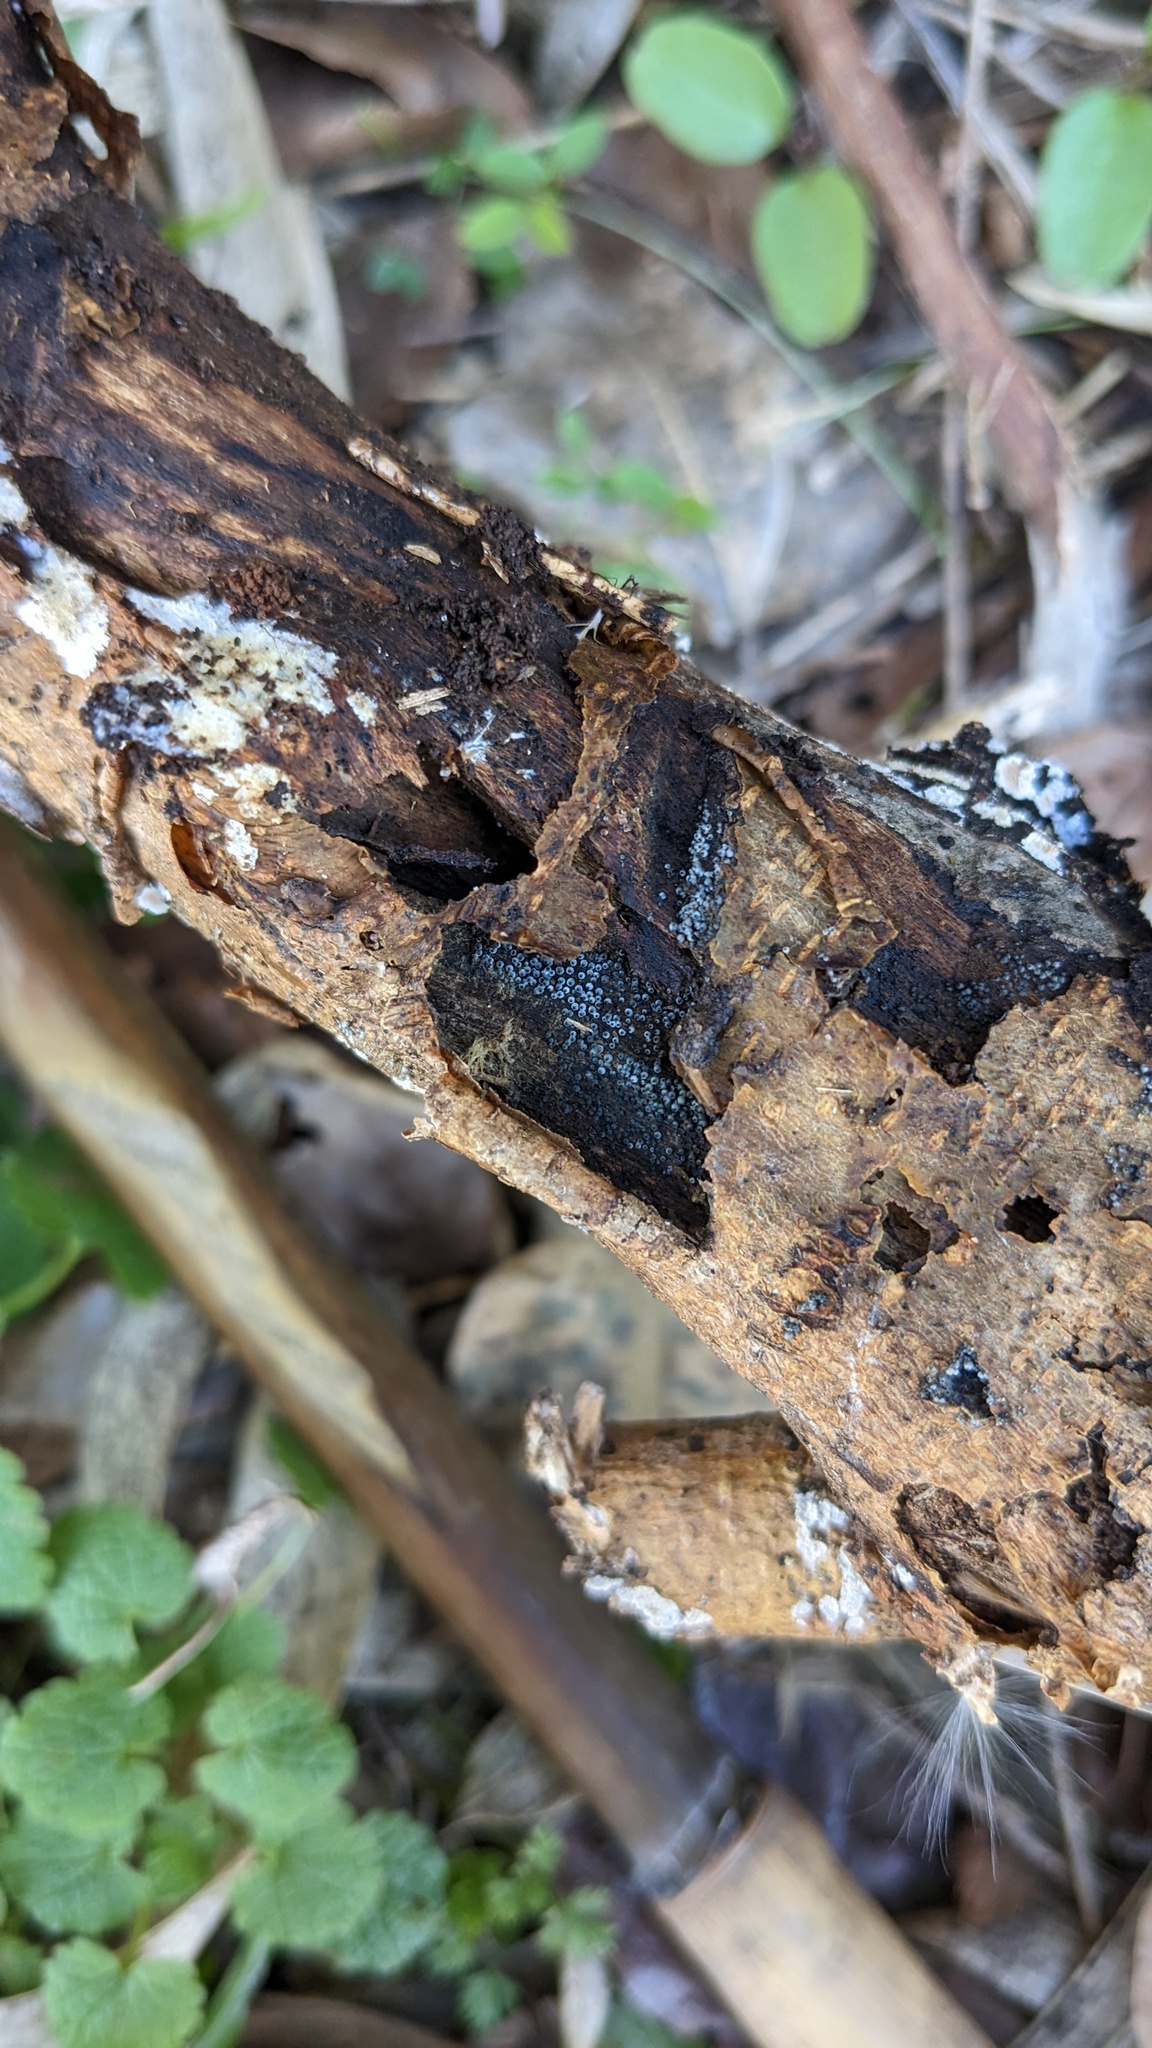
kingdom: Fungi
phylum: Ascomycota
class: Sordariomycetes
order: Sordariales
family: Lasiosphaeriaceae
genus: Lasiosphaeria
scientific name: Lasiosphaeria ovina
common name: Woolly woodwart
